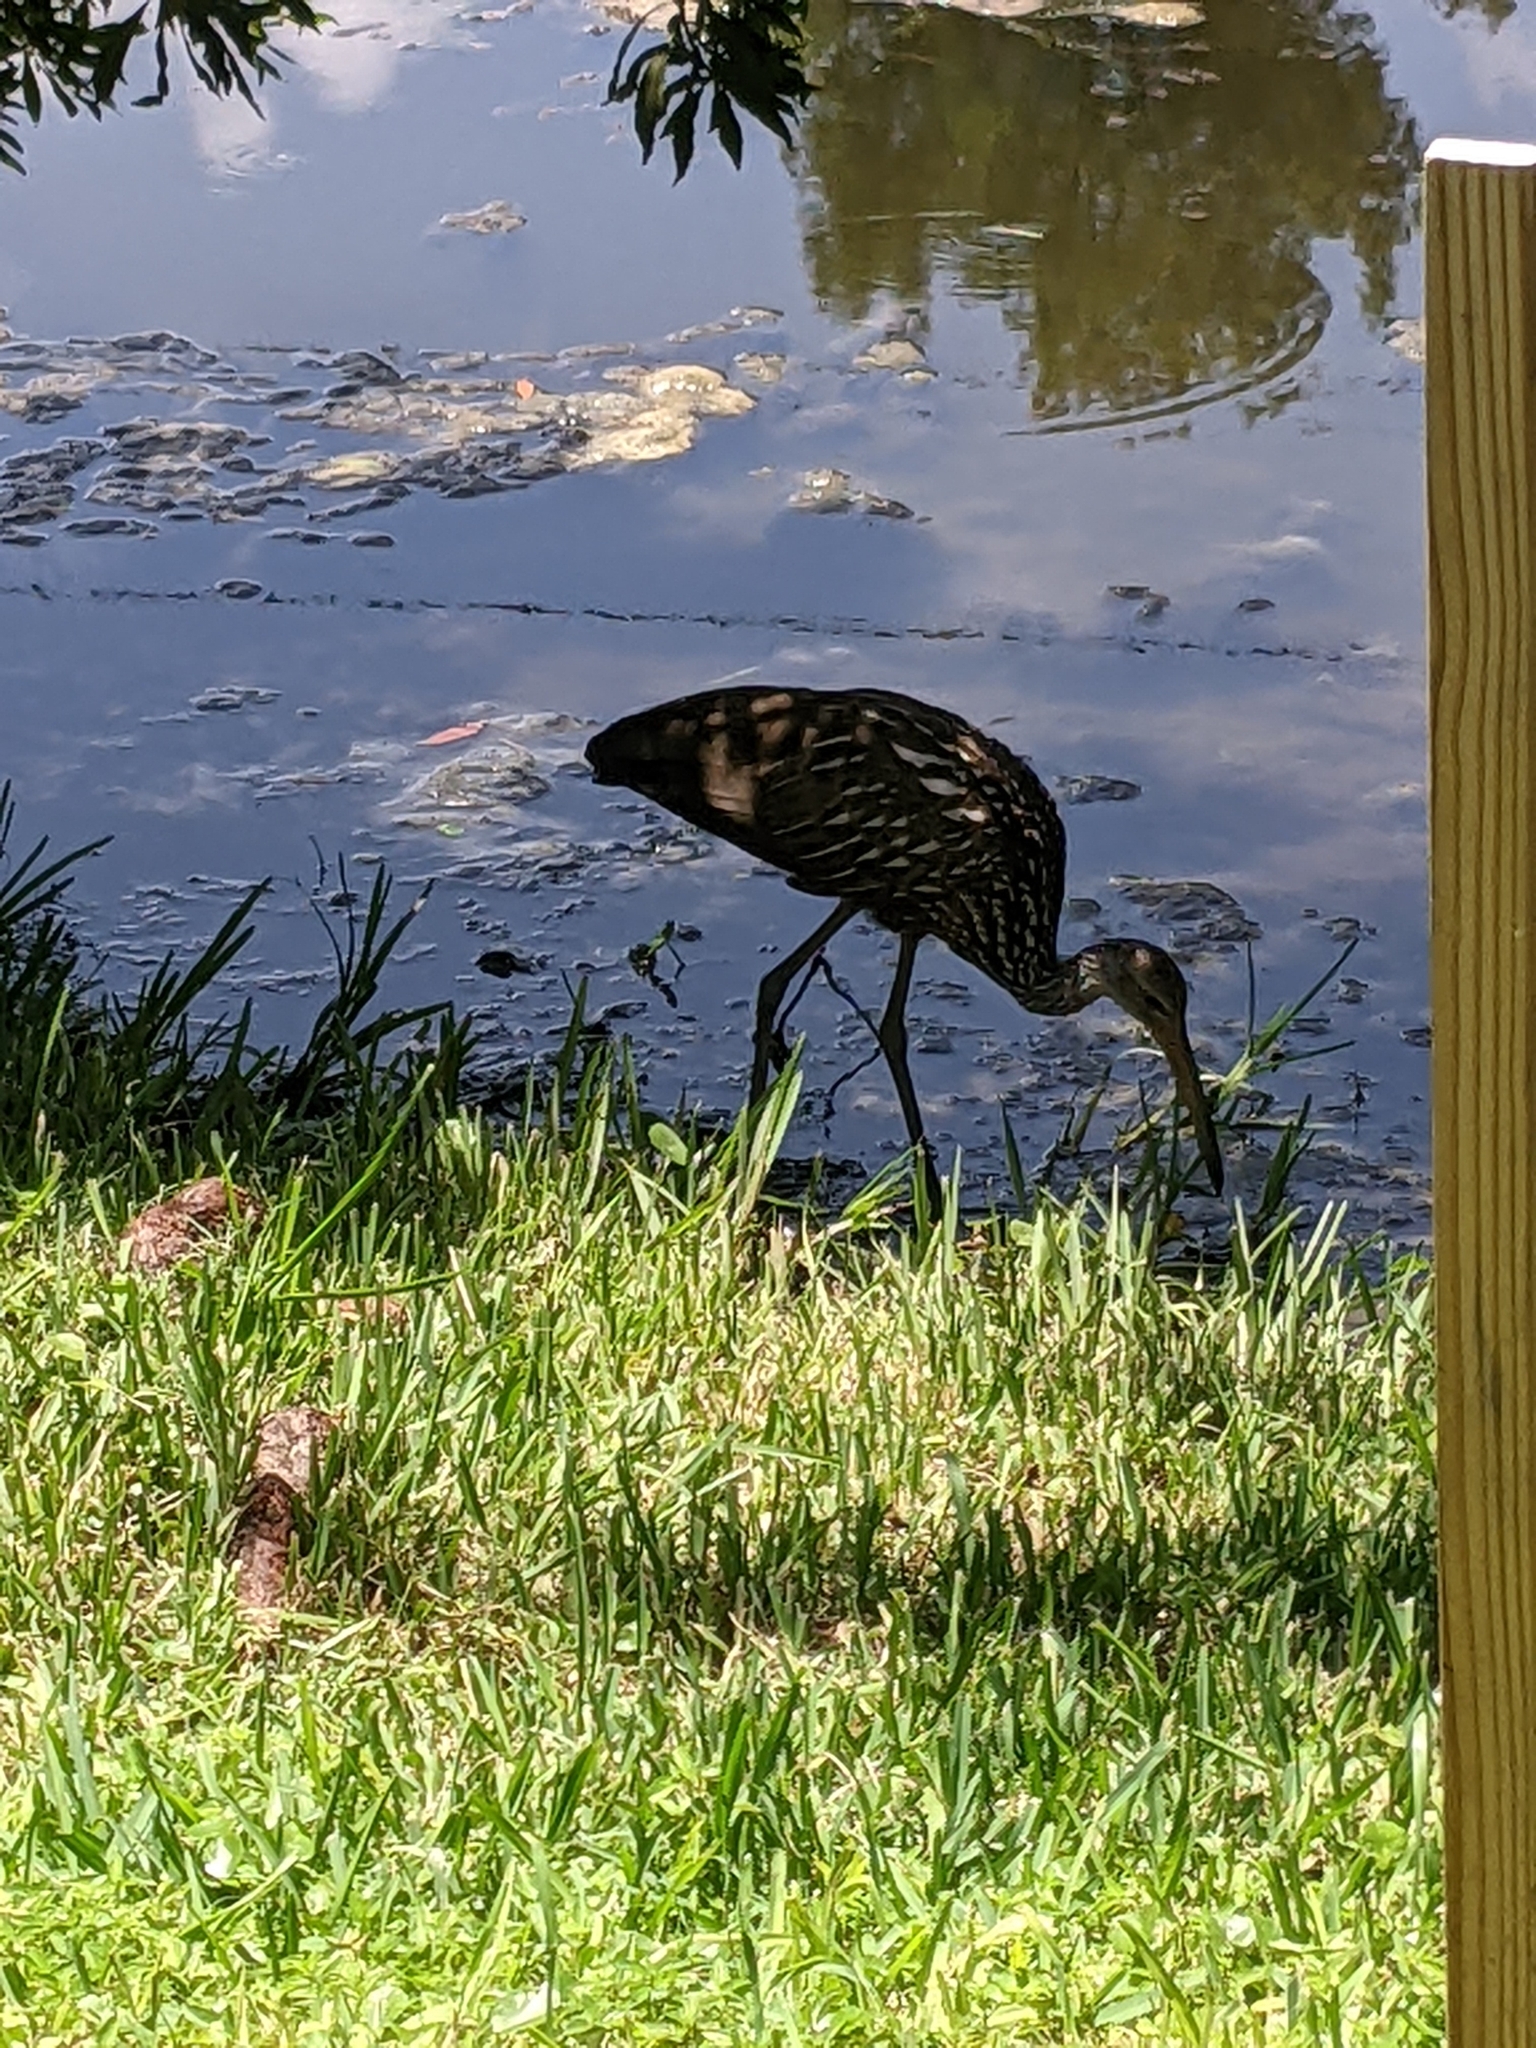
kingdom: Animalia
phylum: Chordata
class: Aves
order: Gruiformes
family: Aramidae
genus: Aramus
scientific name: Aramus guarauna
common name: Limpkin
